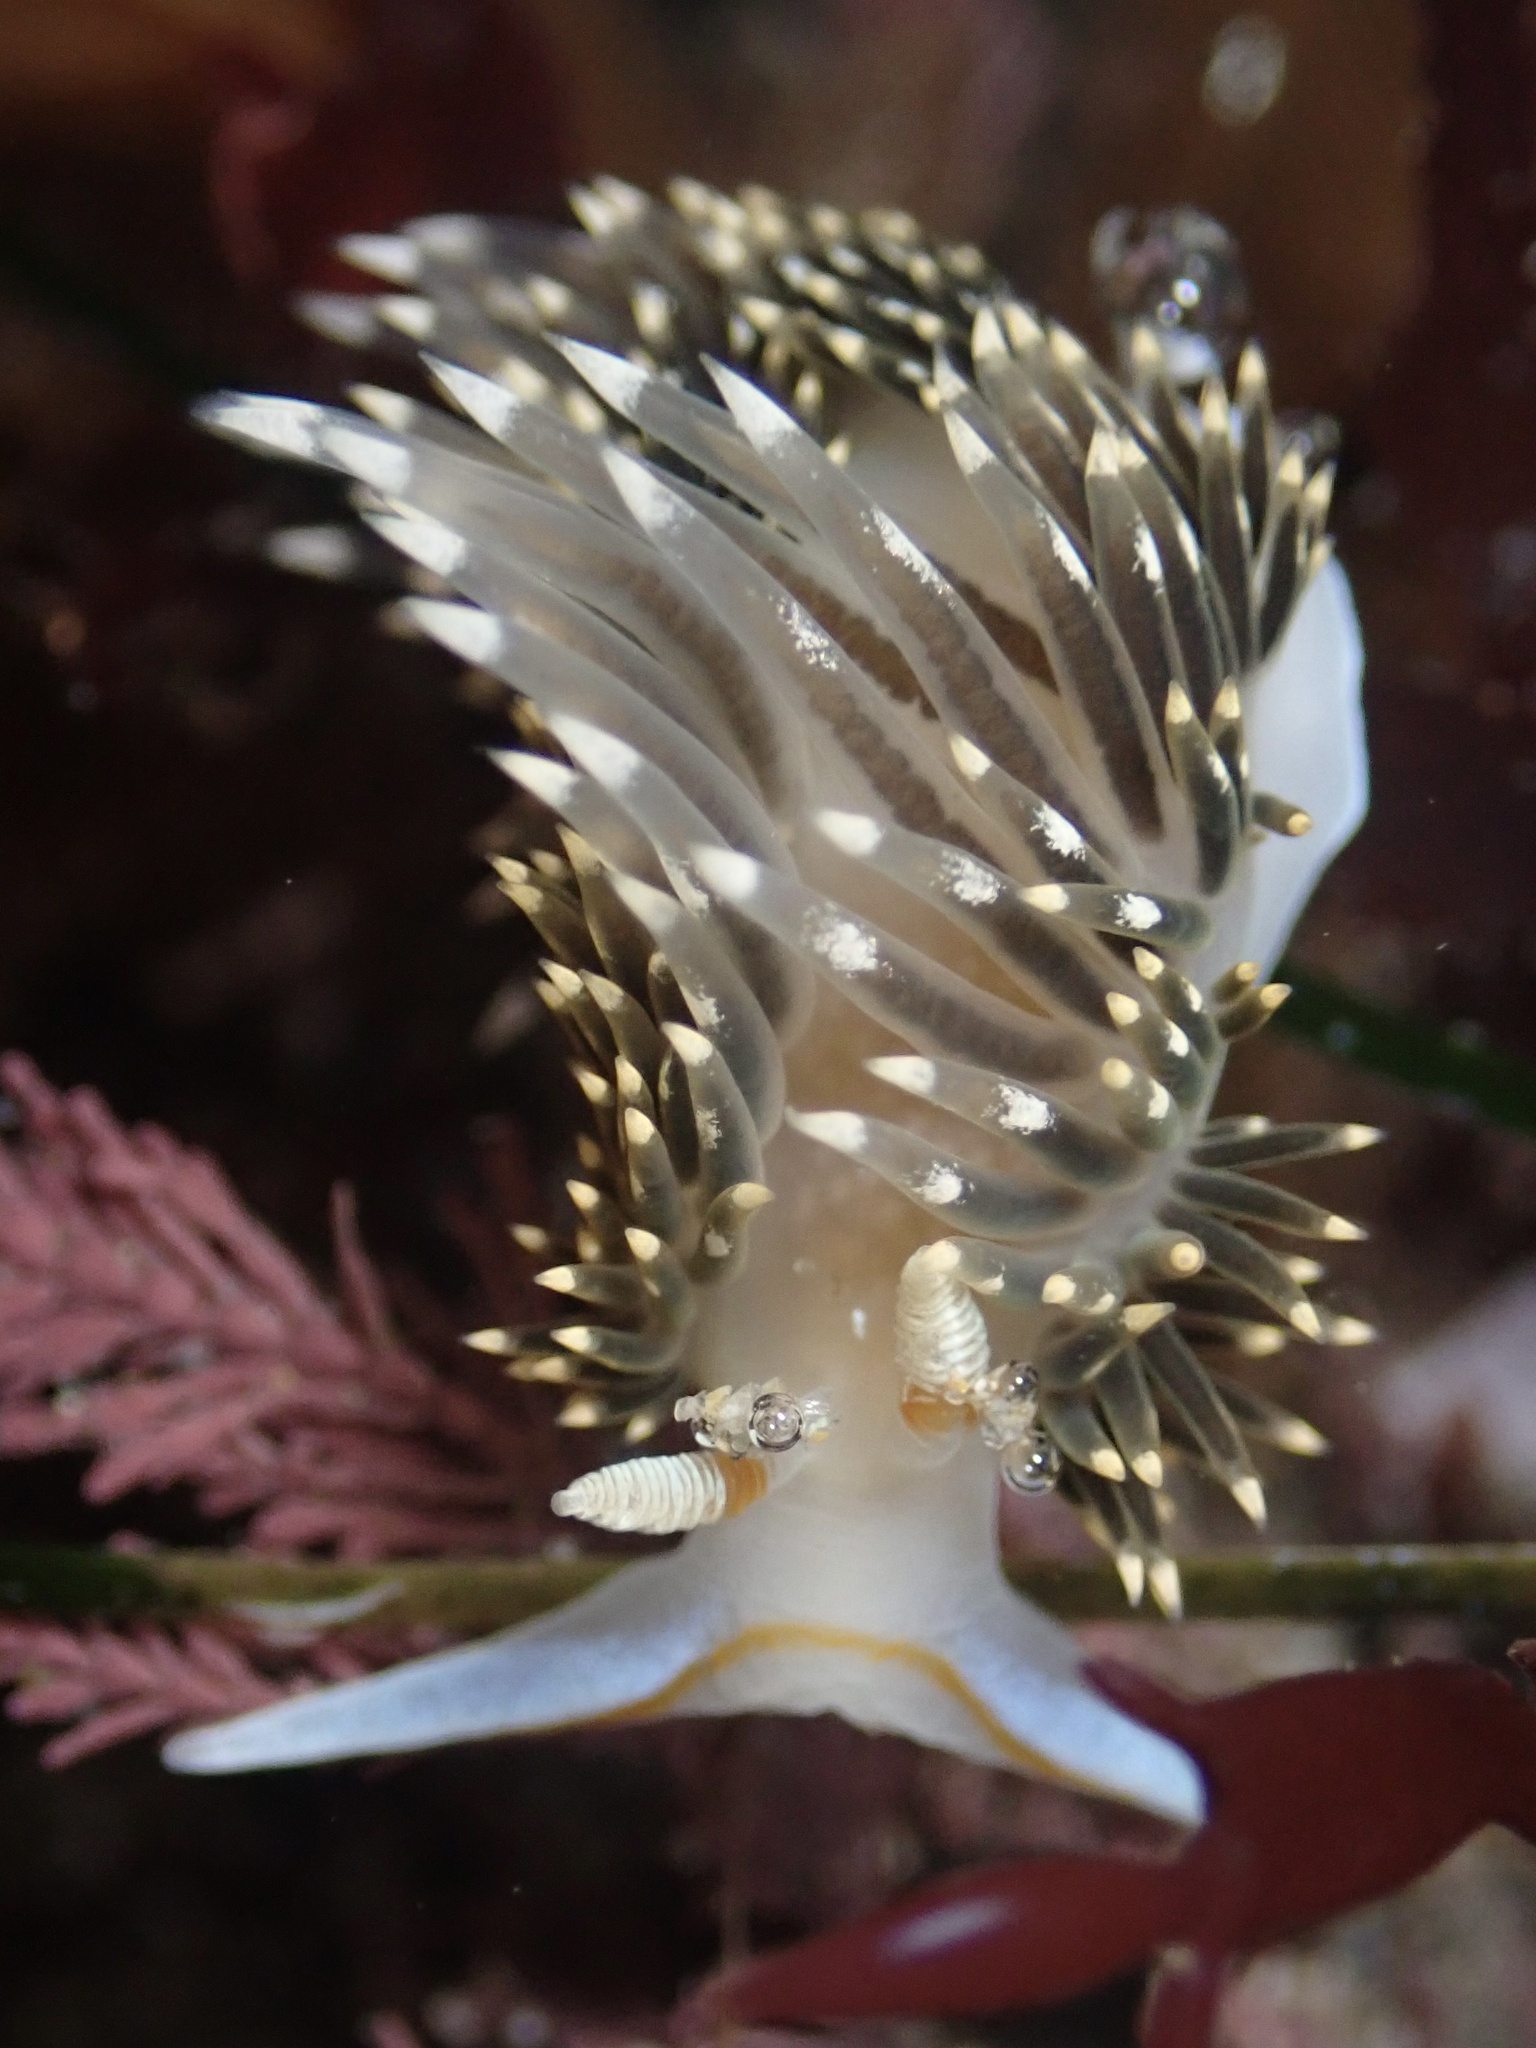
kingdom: Animalia
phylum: Mollusca
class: Gastropoda
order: Nudibranchia
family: Facelinidae
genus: Phidiana
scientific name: Phidiana hiltoni
